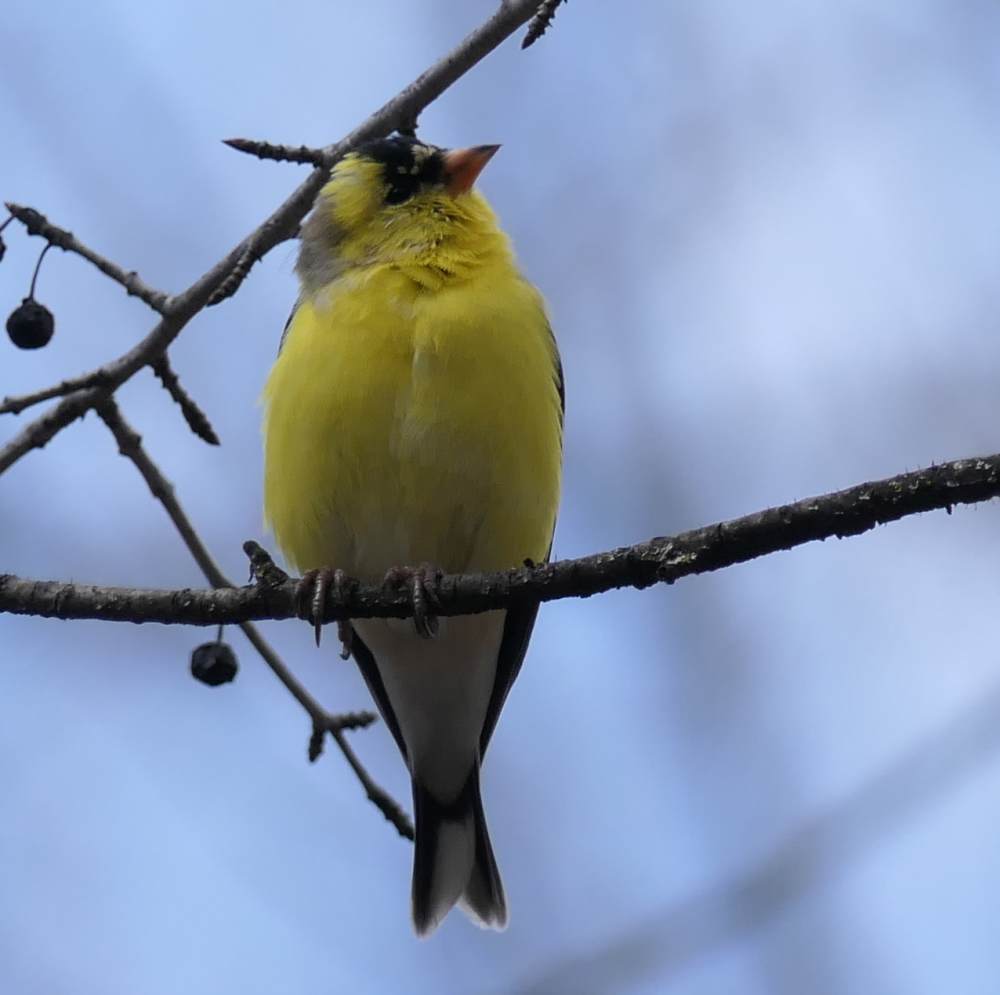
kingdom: Animalia
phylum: Chordata
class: Aves
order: Passeriformes
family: Fringillidae
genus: Spinus
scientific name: Spinus tristis
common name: American goldfinch
